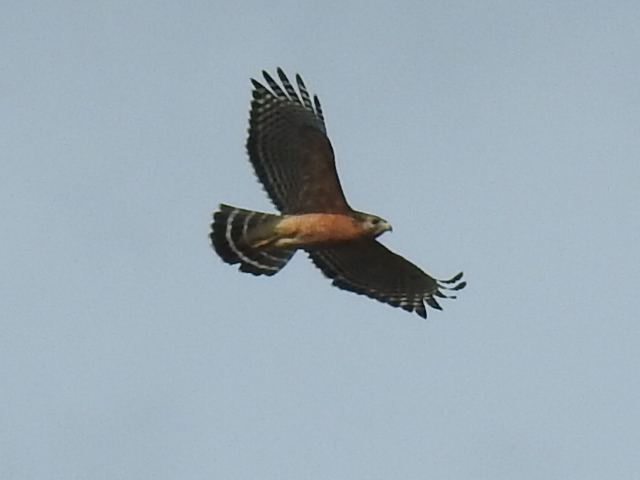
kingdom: Animalia
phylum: Chordata
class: Aves
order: Accipitriformes
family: Accipitridae
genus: Buteo
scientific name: Buteo lineatus
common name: Red-shouldered hawk
